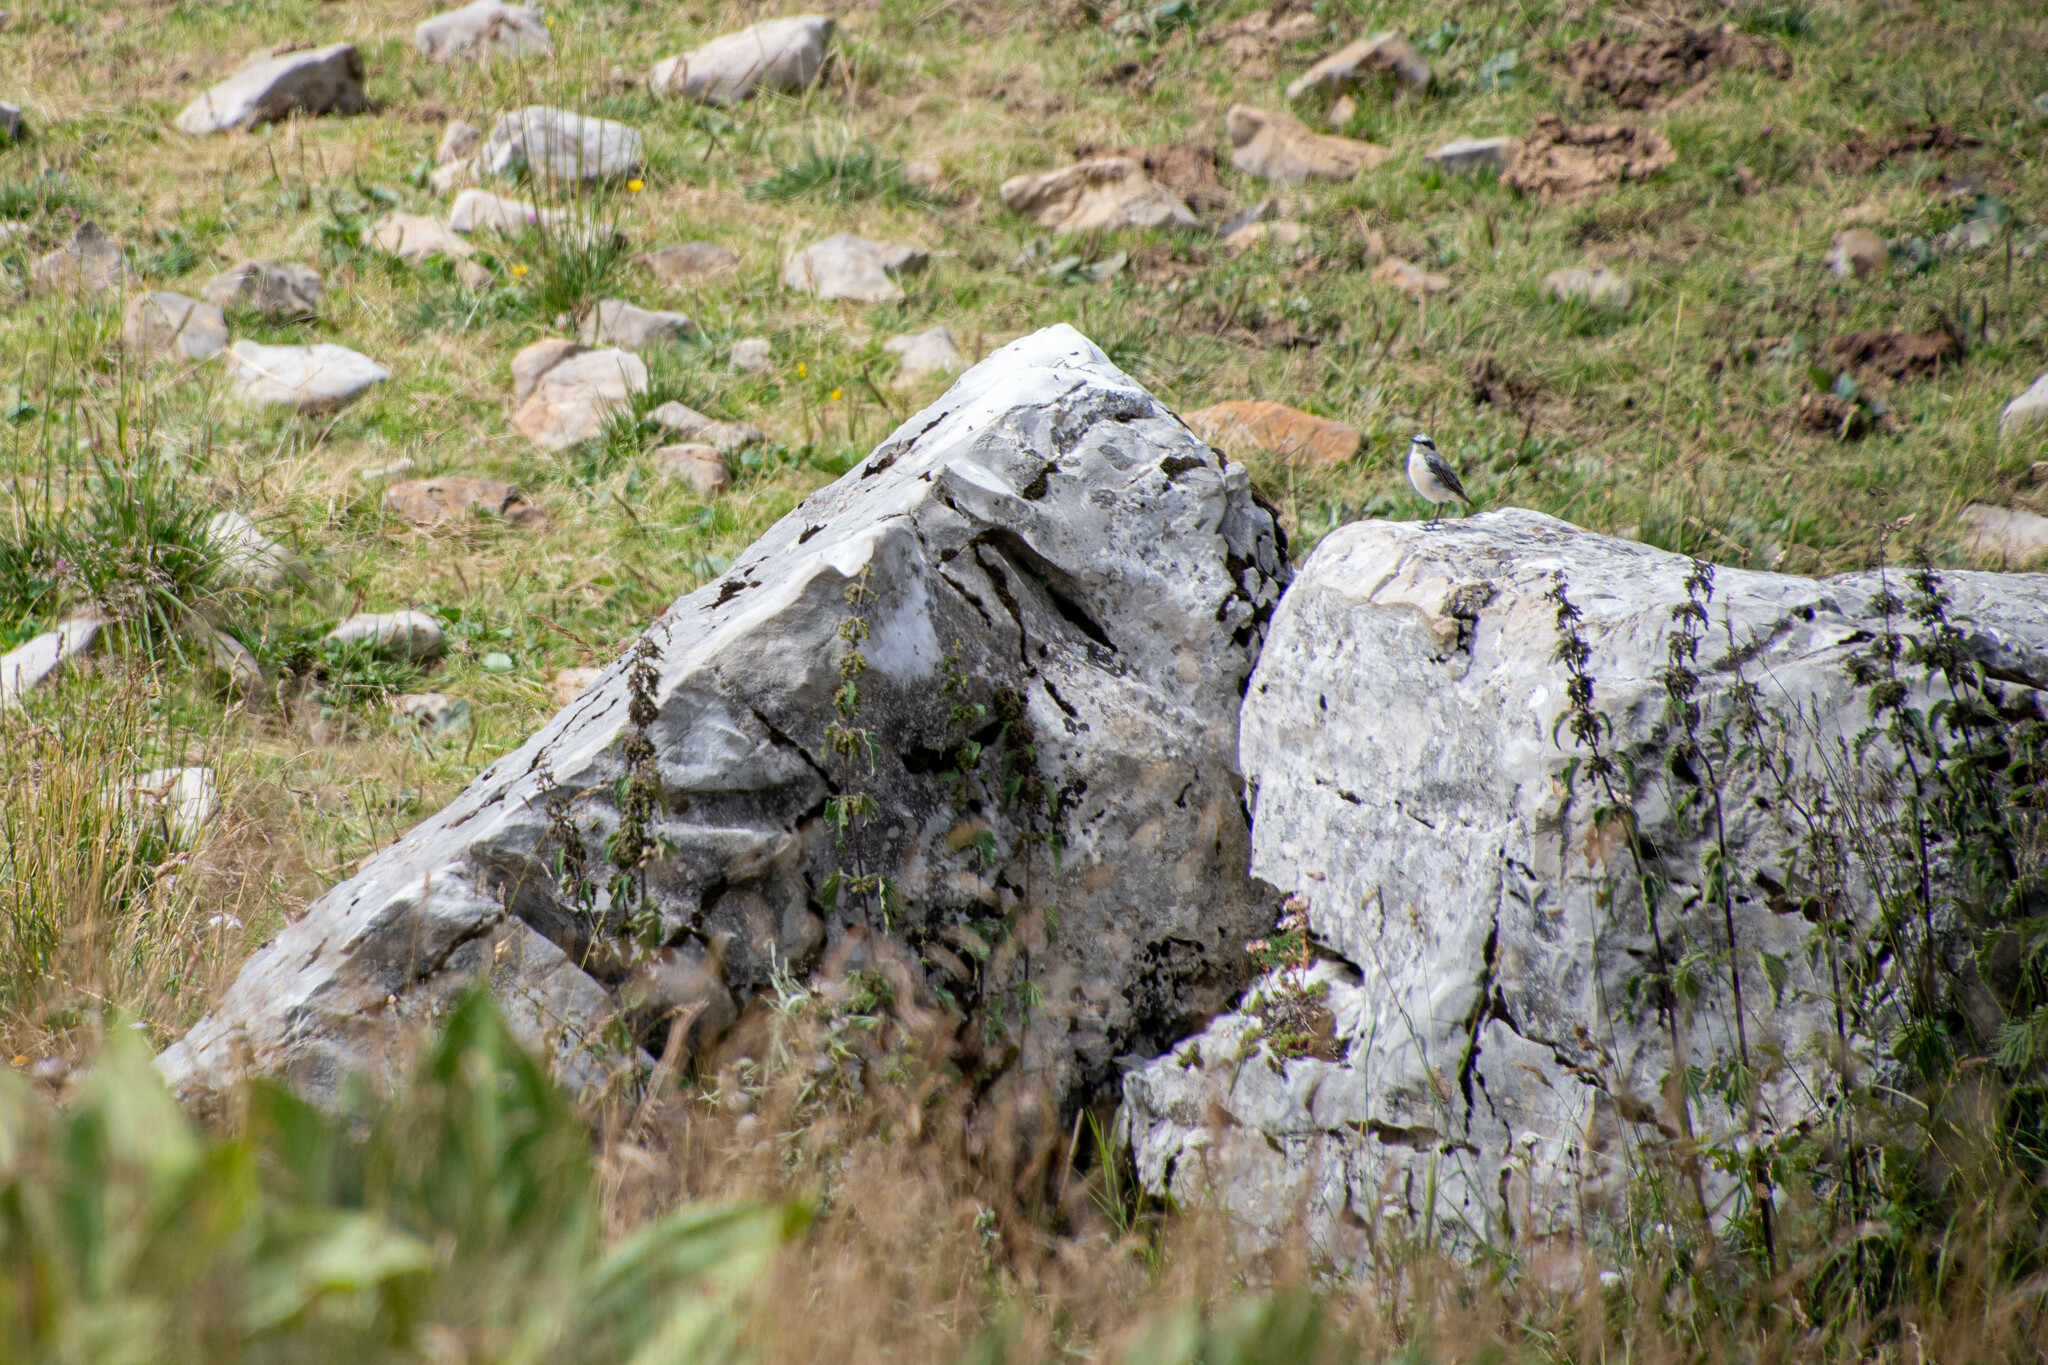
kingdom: Animalia
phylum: Chordata
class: Aves
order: Passeriformes
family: Muscicapidae
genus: Oenanthe
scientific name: Oenanthe oenanthe
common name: Northern wheatear
